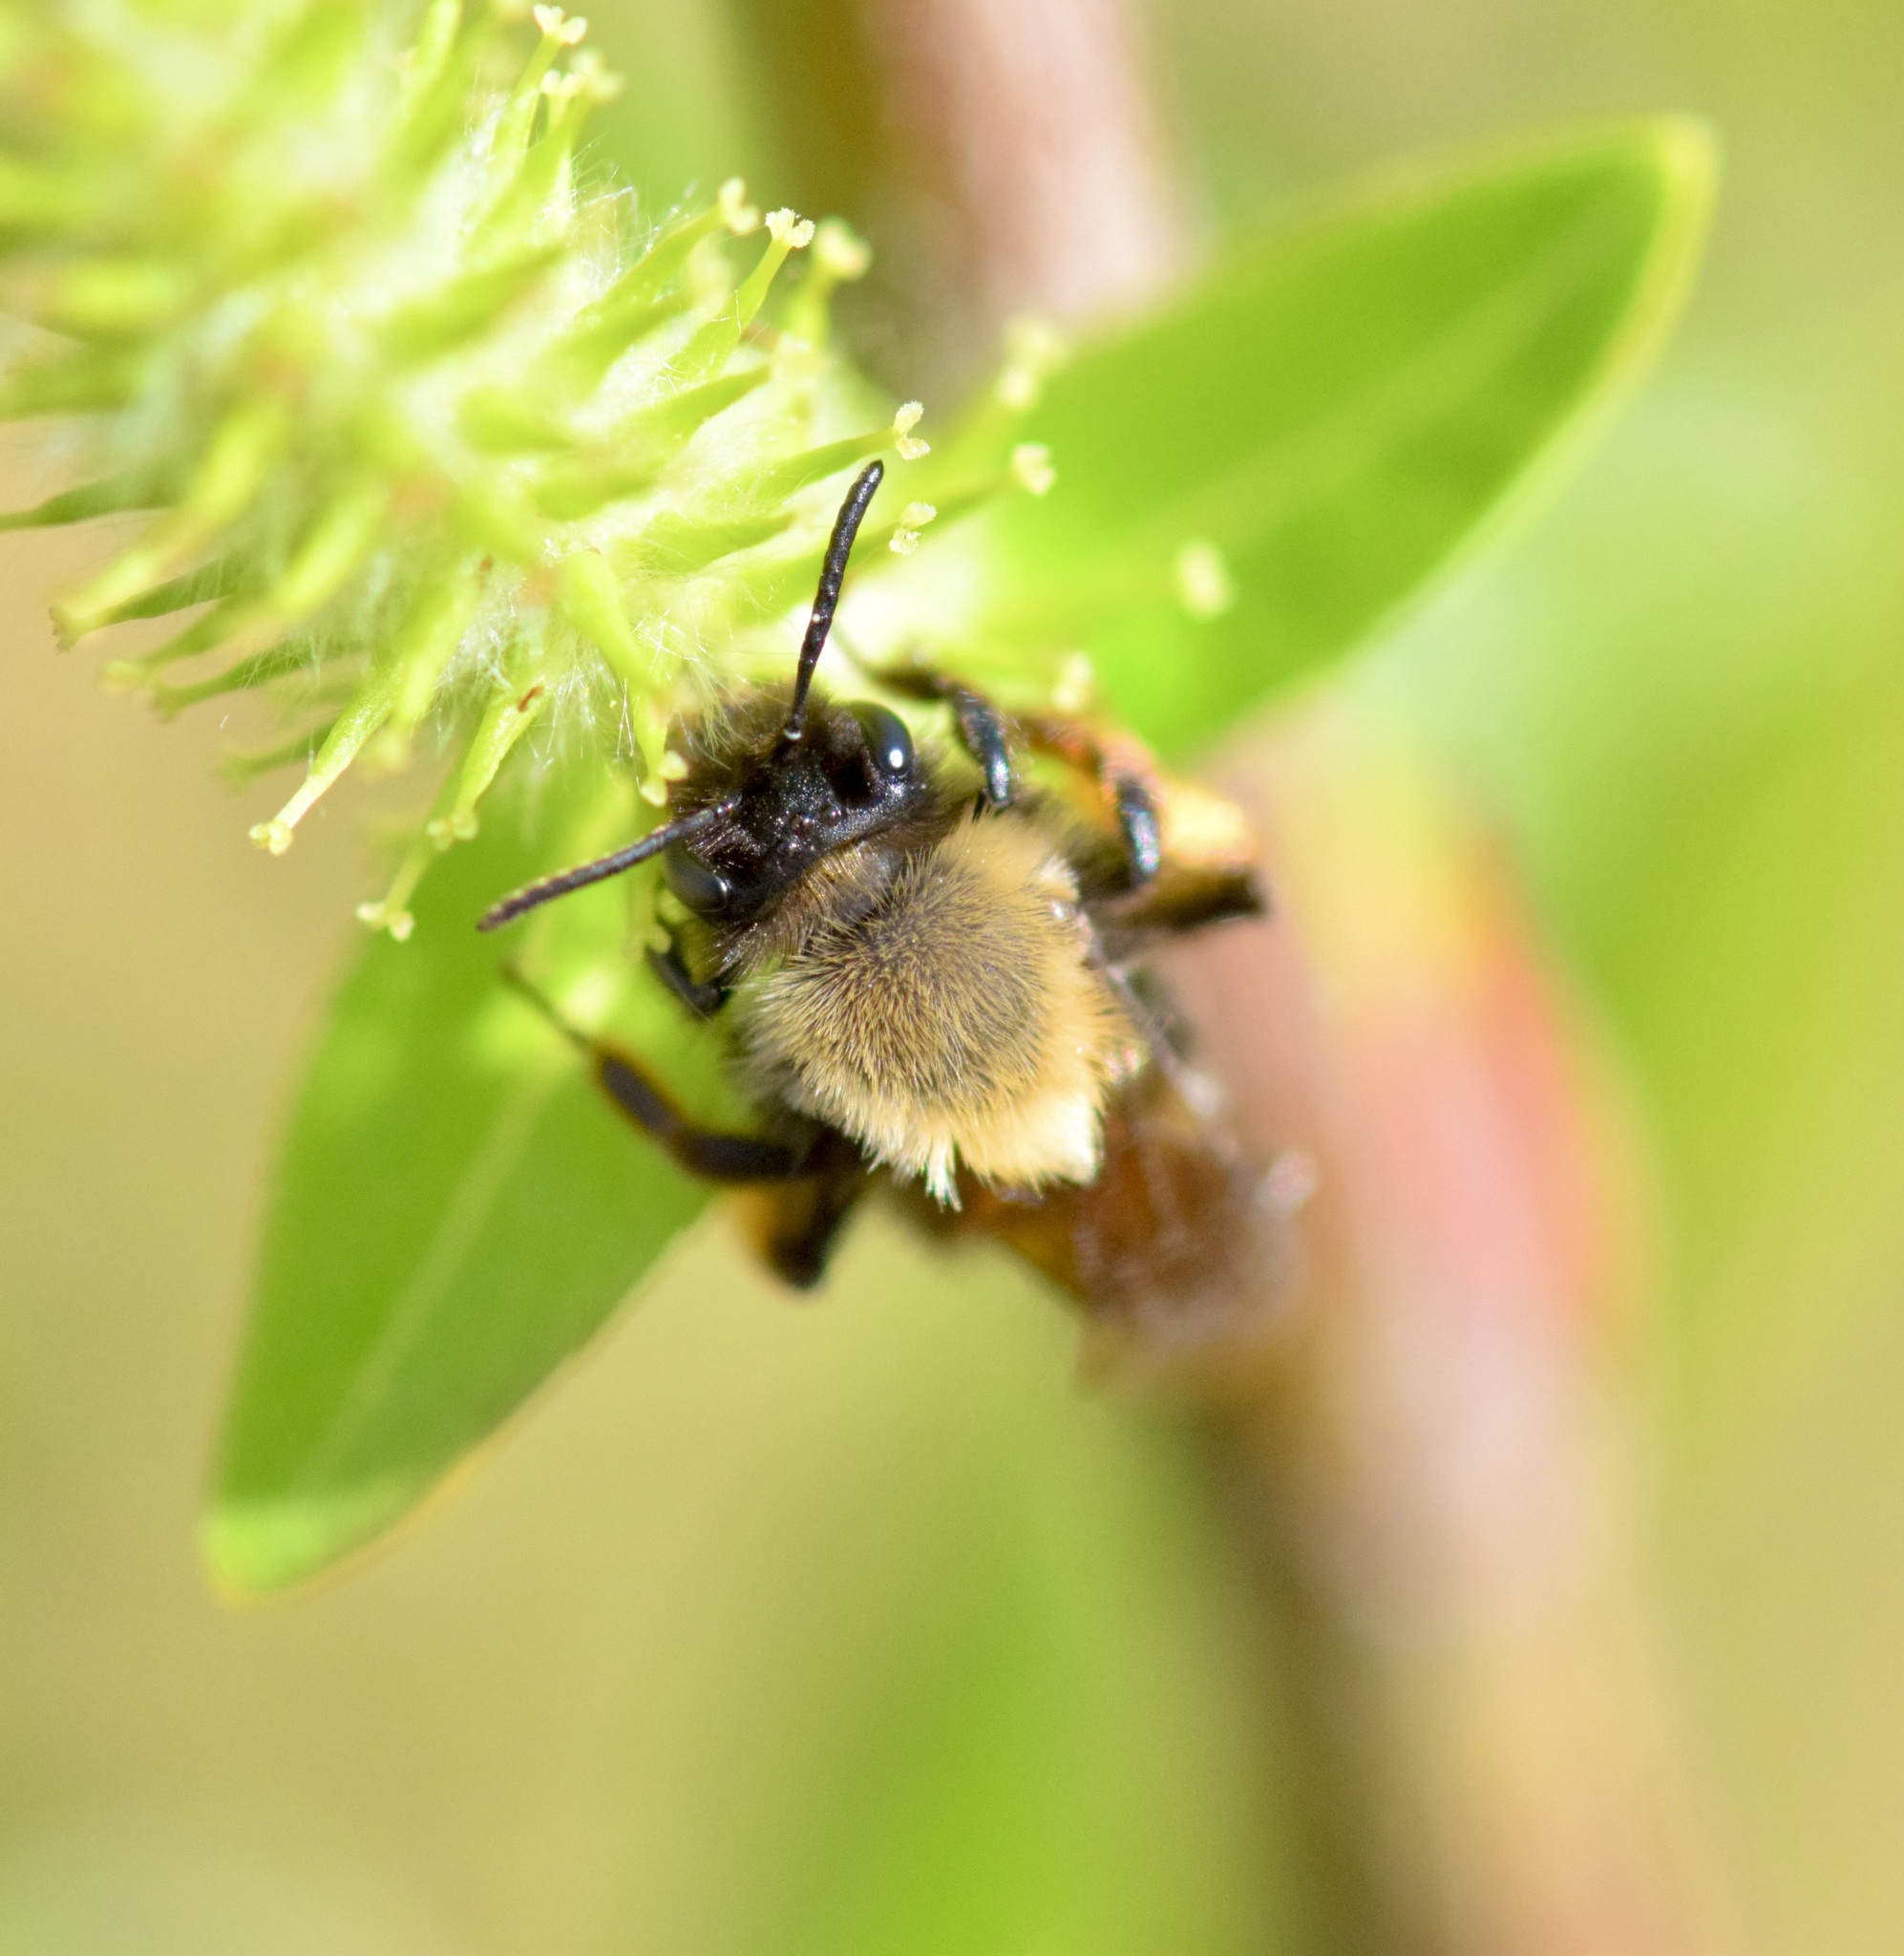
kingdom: Animalia
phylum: Arthropoda
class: Insecta
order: Hymenoptera
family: Andrenidae
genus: Andrena
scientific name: Andrena clarkella
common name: Clarke's mining bee
